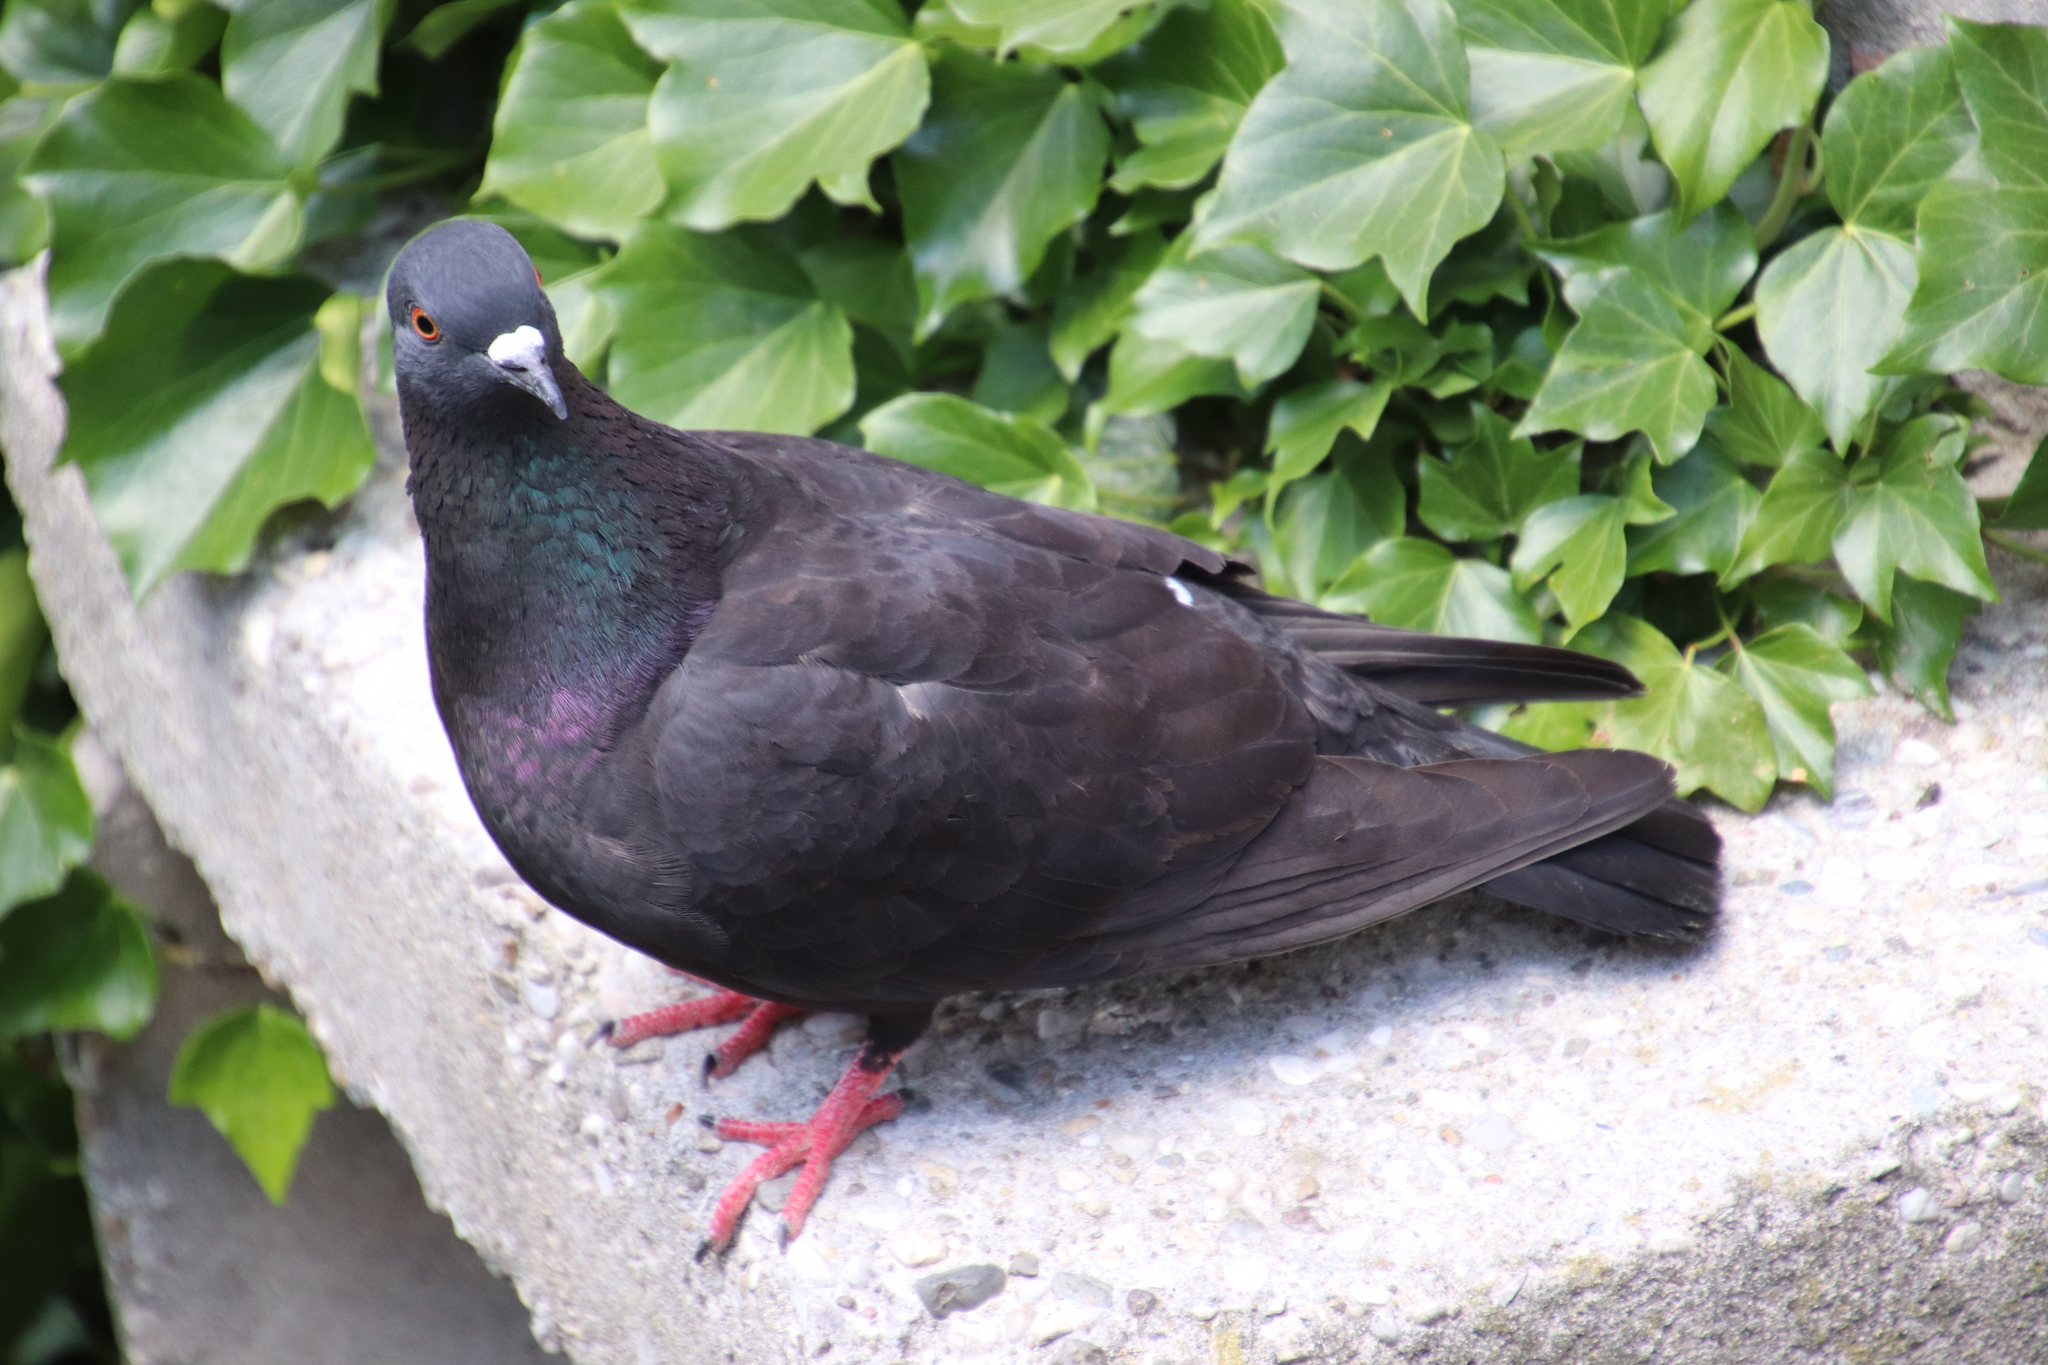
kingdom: Animalia
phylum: Chordata
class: Aves
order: Columbiformes
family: Columbidae
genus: Columba
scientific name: Columba livia
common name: Rock pigeon
